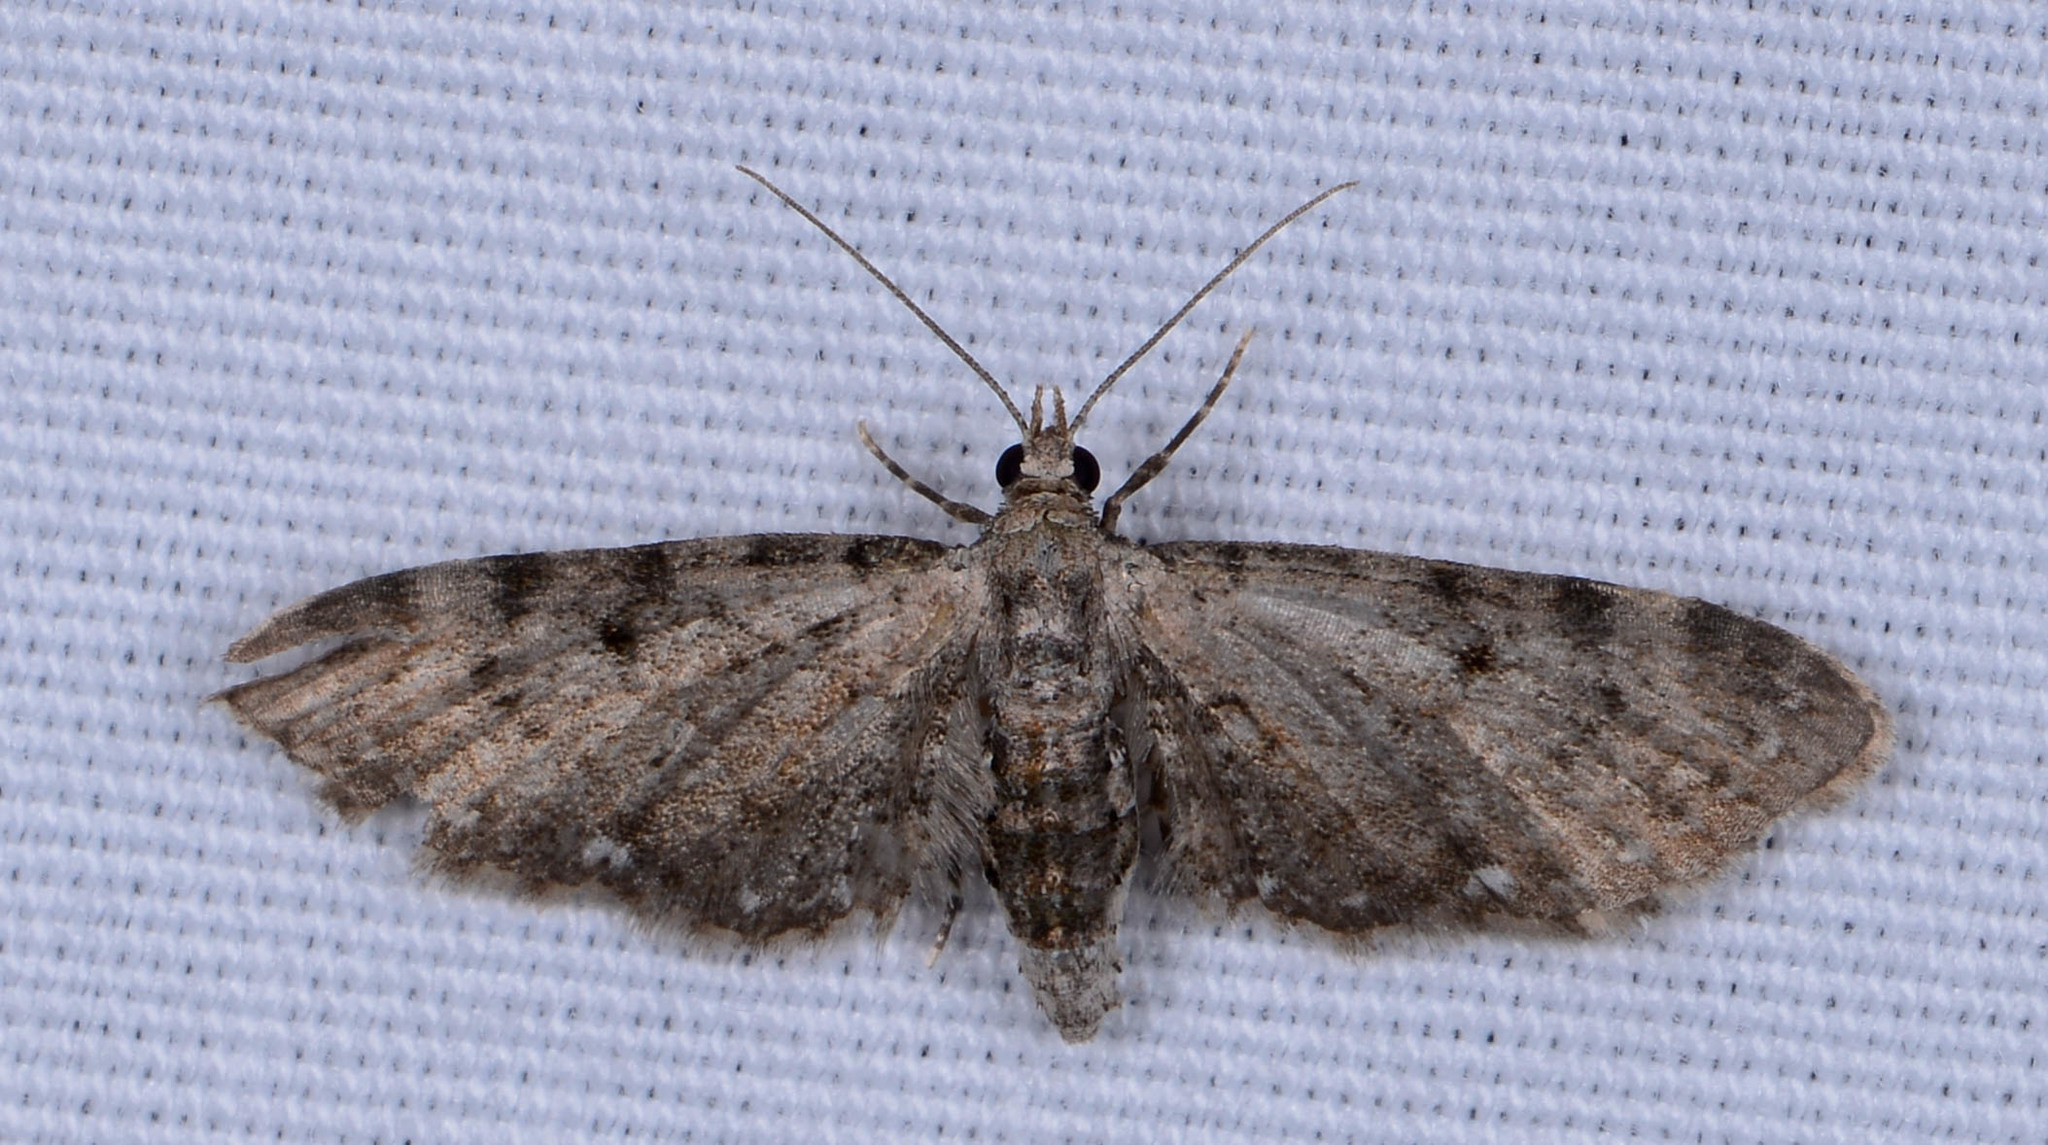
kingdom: Animalia
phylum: Arthropoda
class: Insecta
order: Lepidoptera
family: Geometridae
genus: Eupithecia
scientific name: Eupithecia miserulata
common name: Common eupithecia
